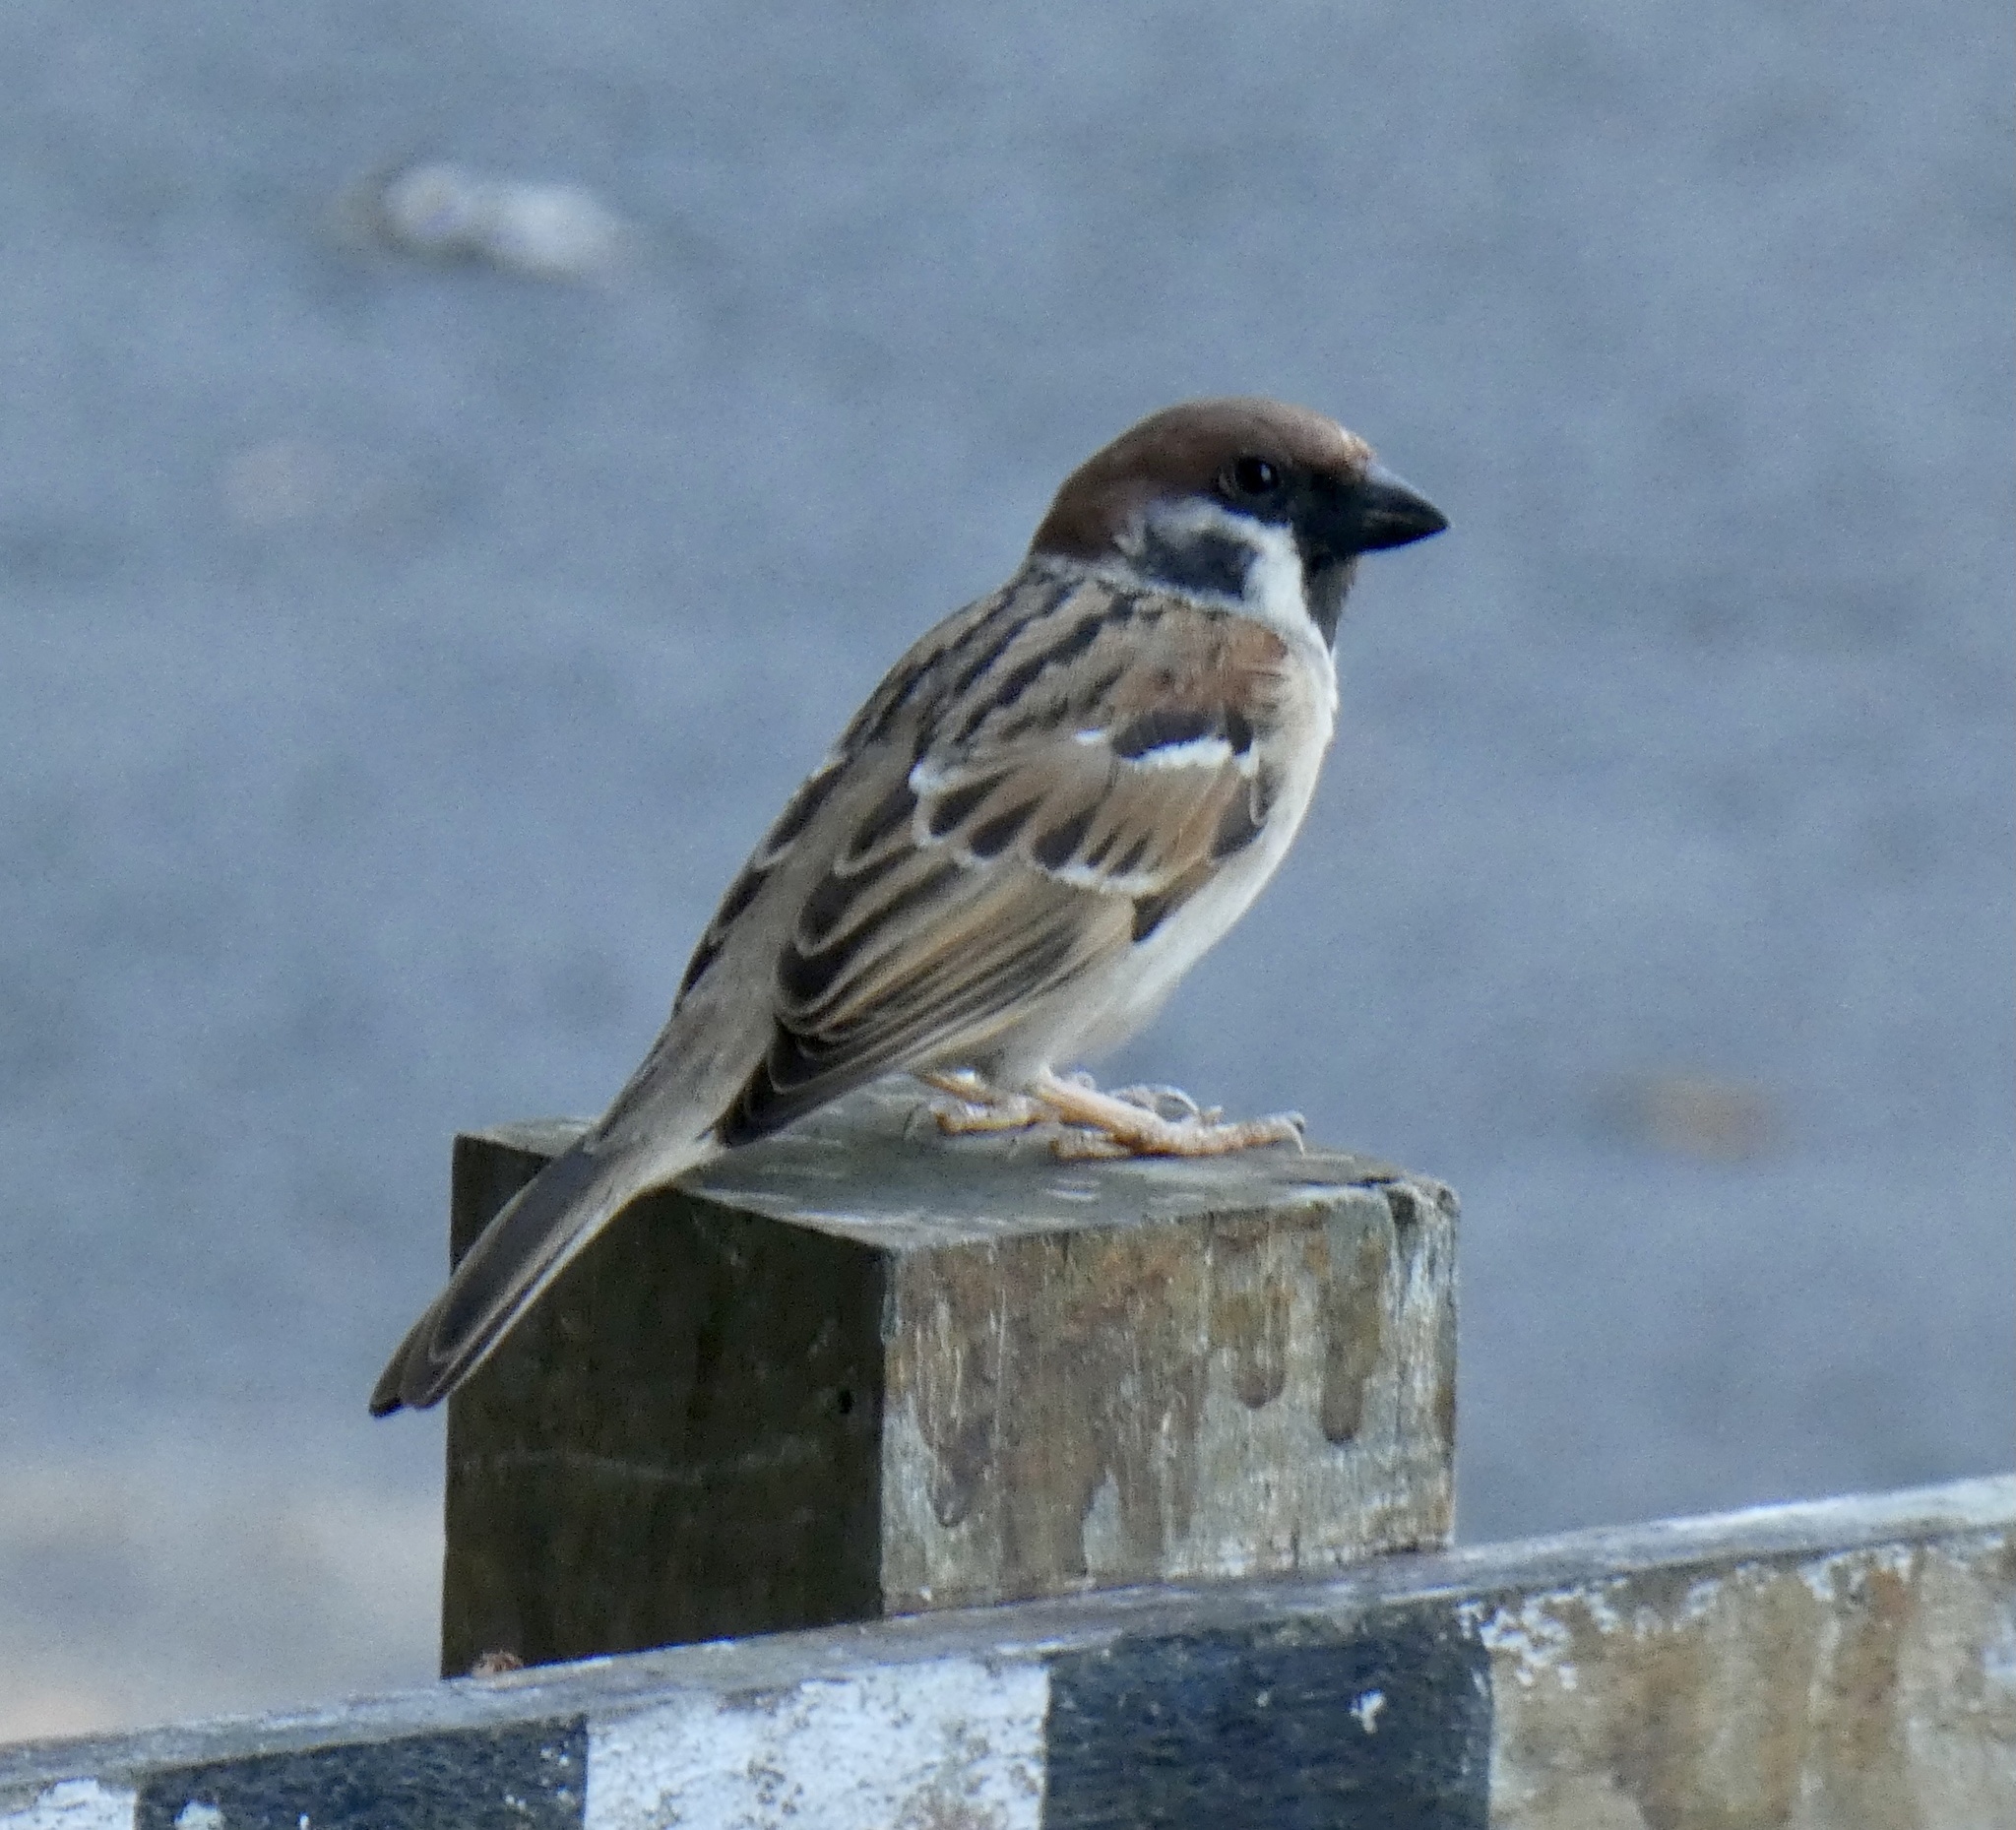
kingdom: Animalia
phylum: Chordata
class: Aves
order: Passeriformes
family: Passeridae
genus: Passer
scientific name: Passer montanus
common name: Eurasian tree sparrow
